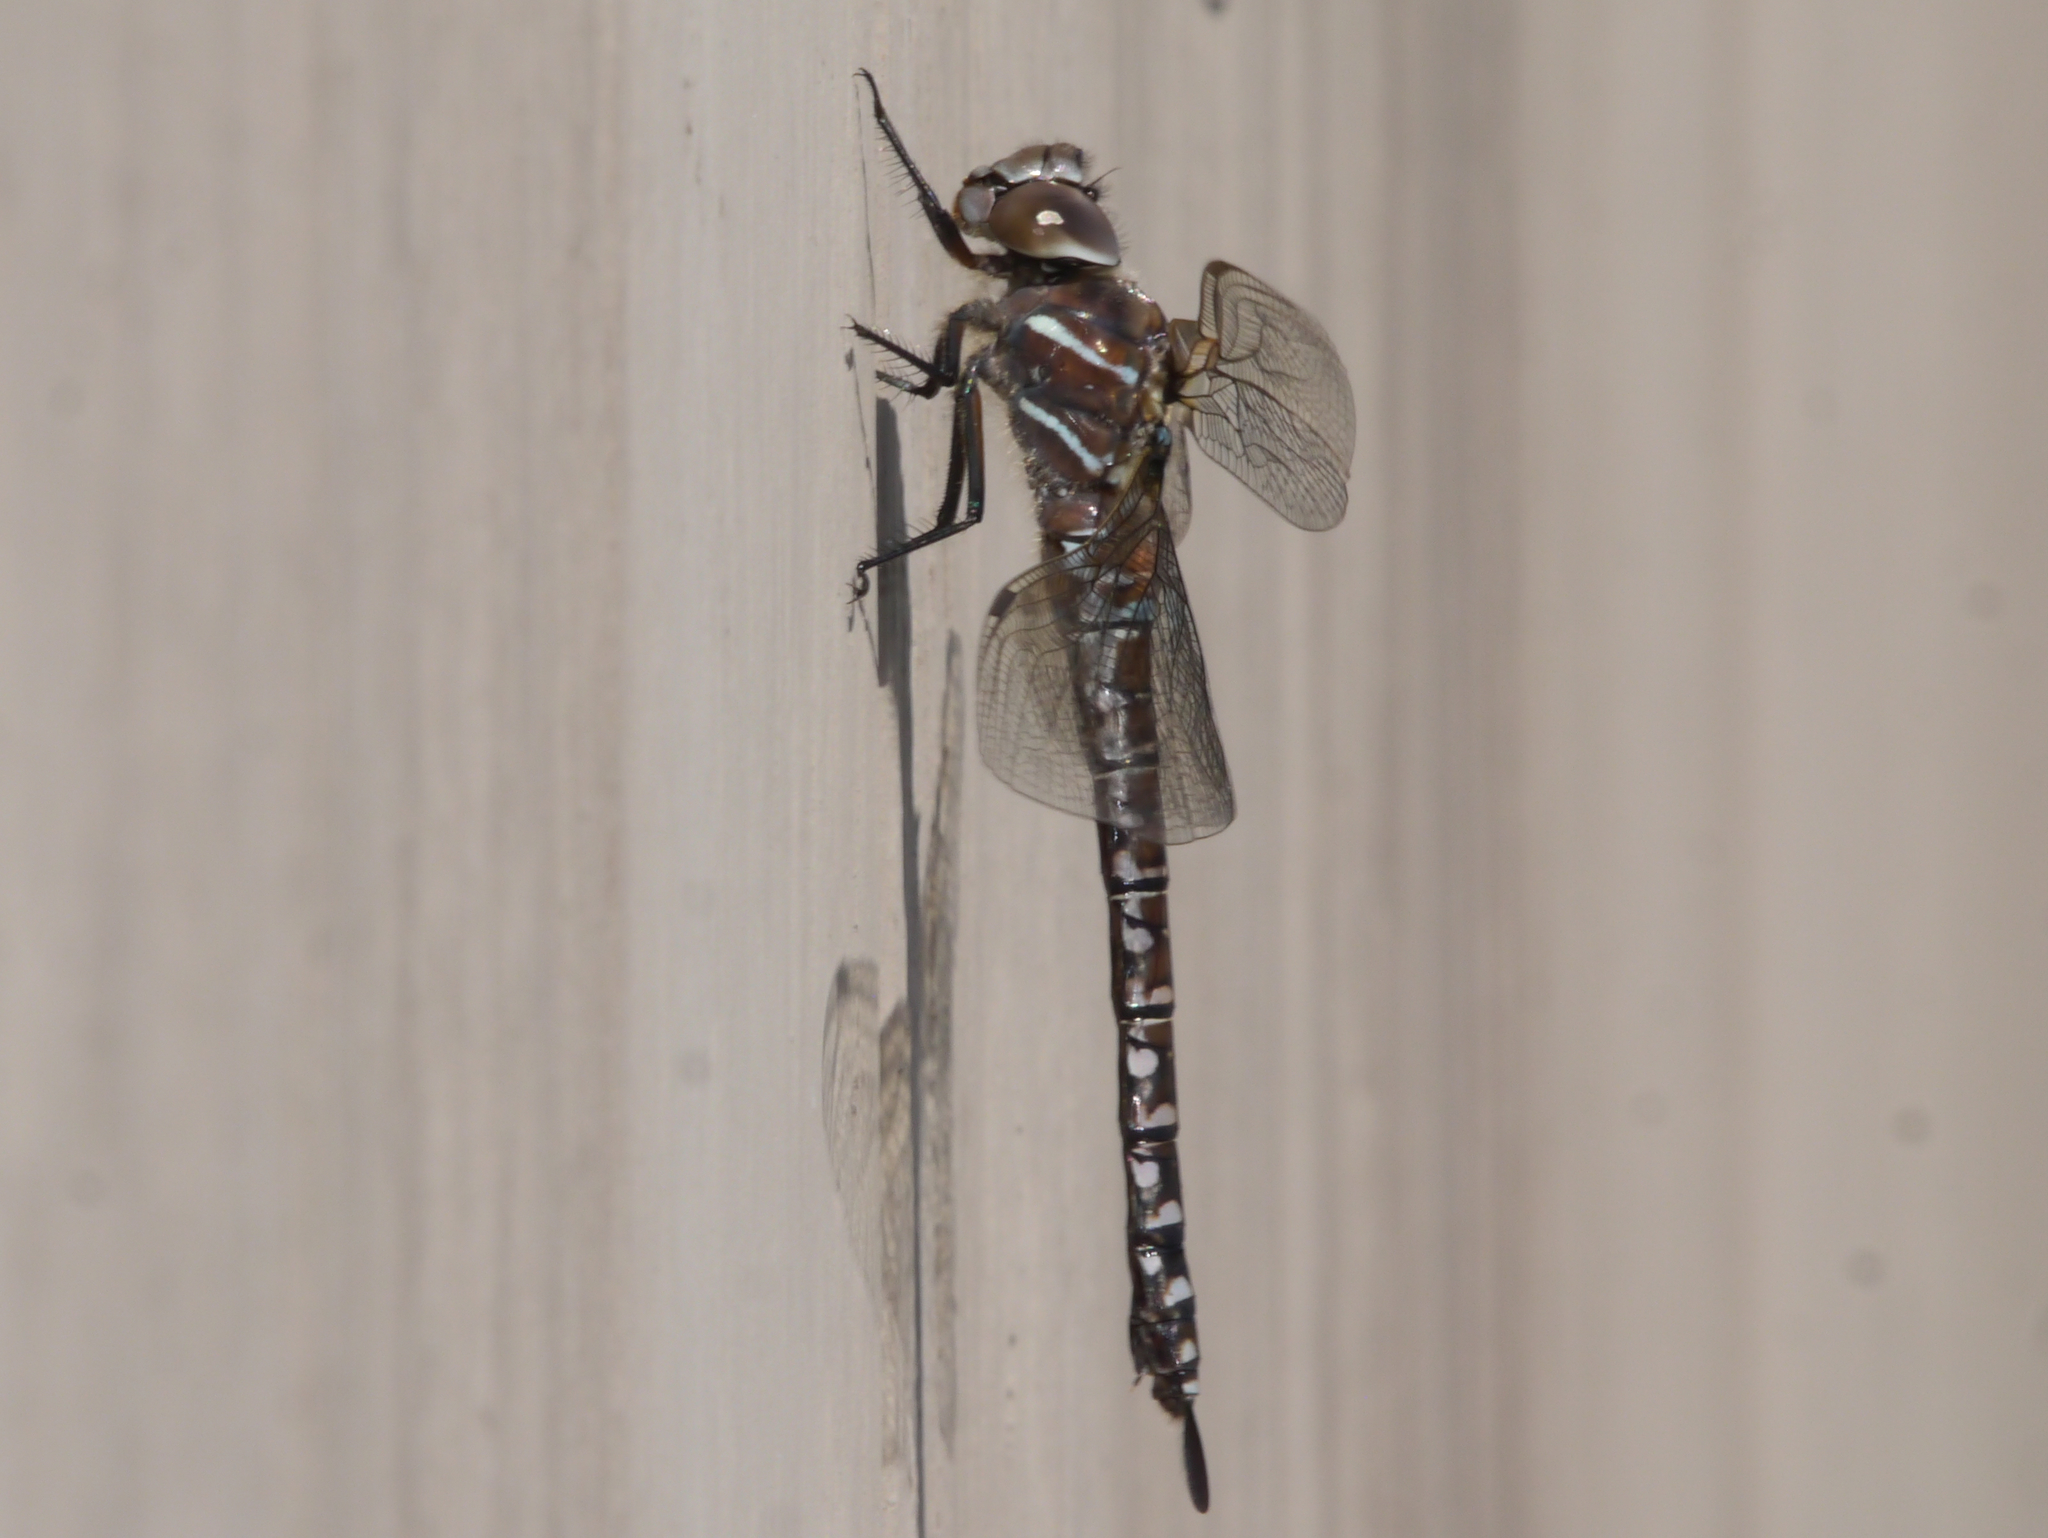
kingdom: Animalia
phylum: Arthropoda
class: Insecta
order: Odonata
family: Aeshnidae
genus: Aeshna
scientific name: Aeshna interrupta
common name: Variable darner
